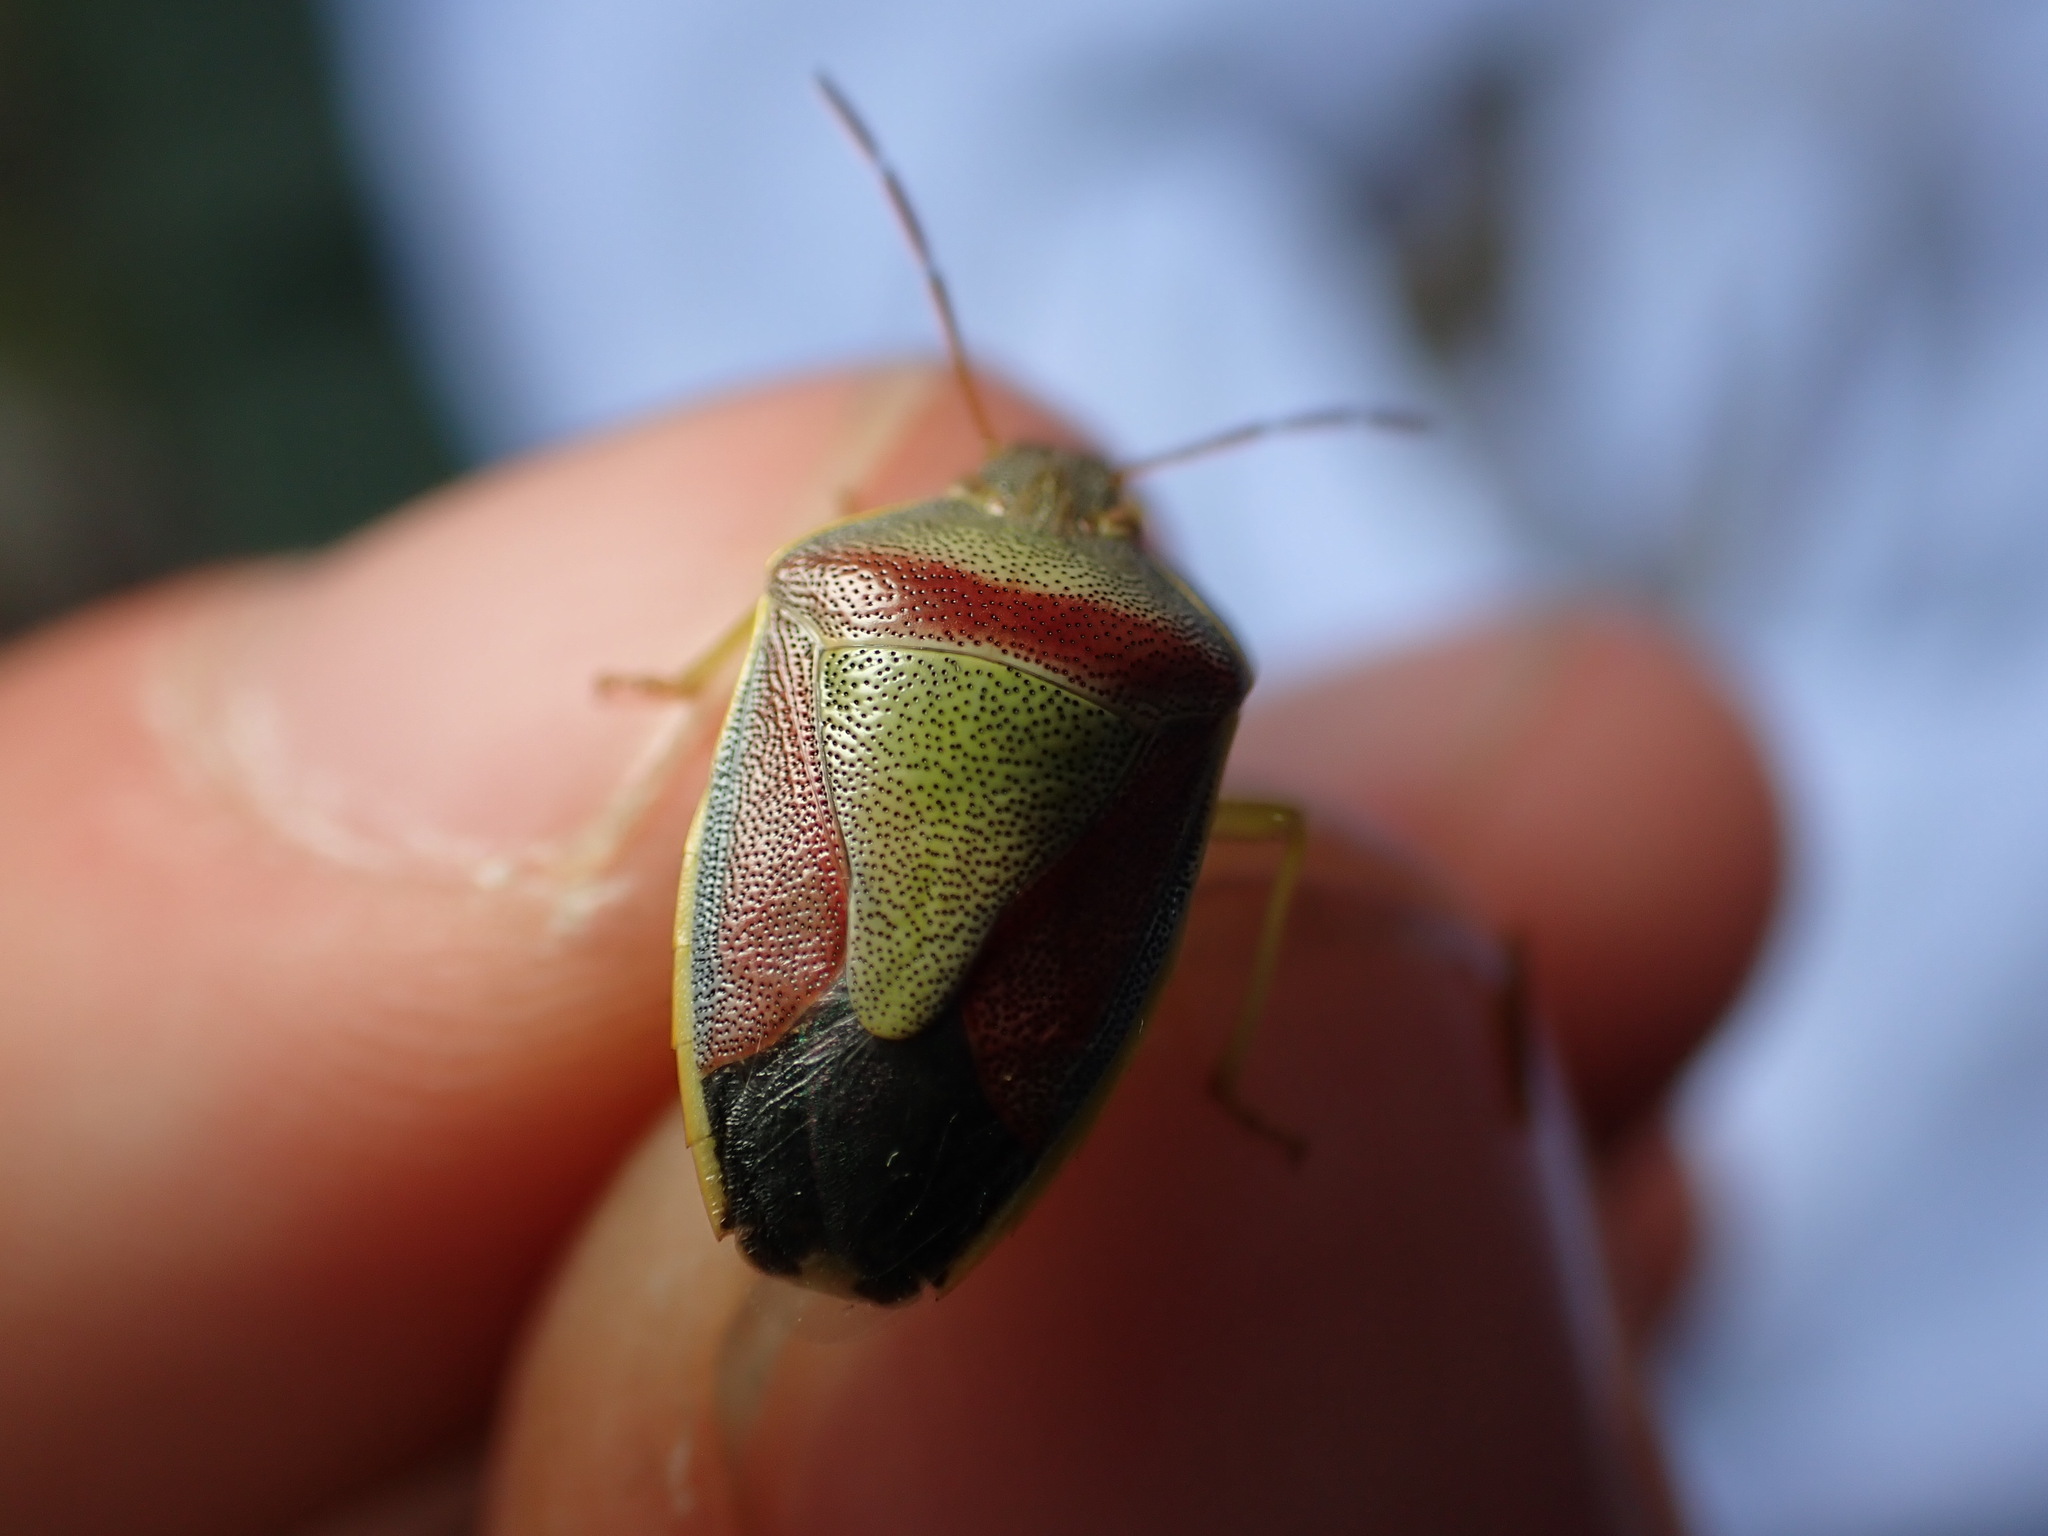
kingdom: Animalia
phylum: Arthropoda
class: Insecta
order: Hemiptera
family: Pentatomidae
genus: Piezodorus
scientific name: Piezodorus lituratus
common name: Stink bug
